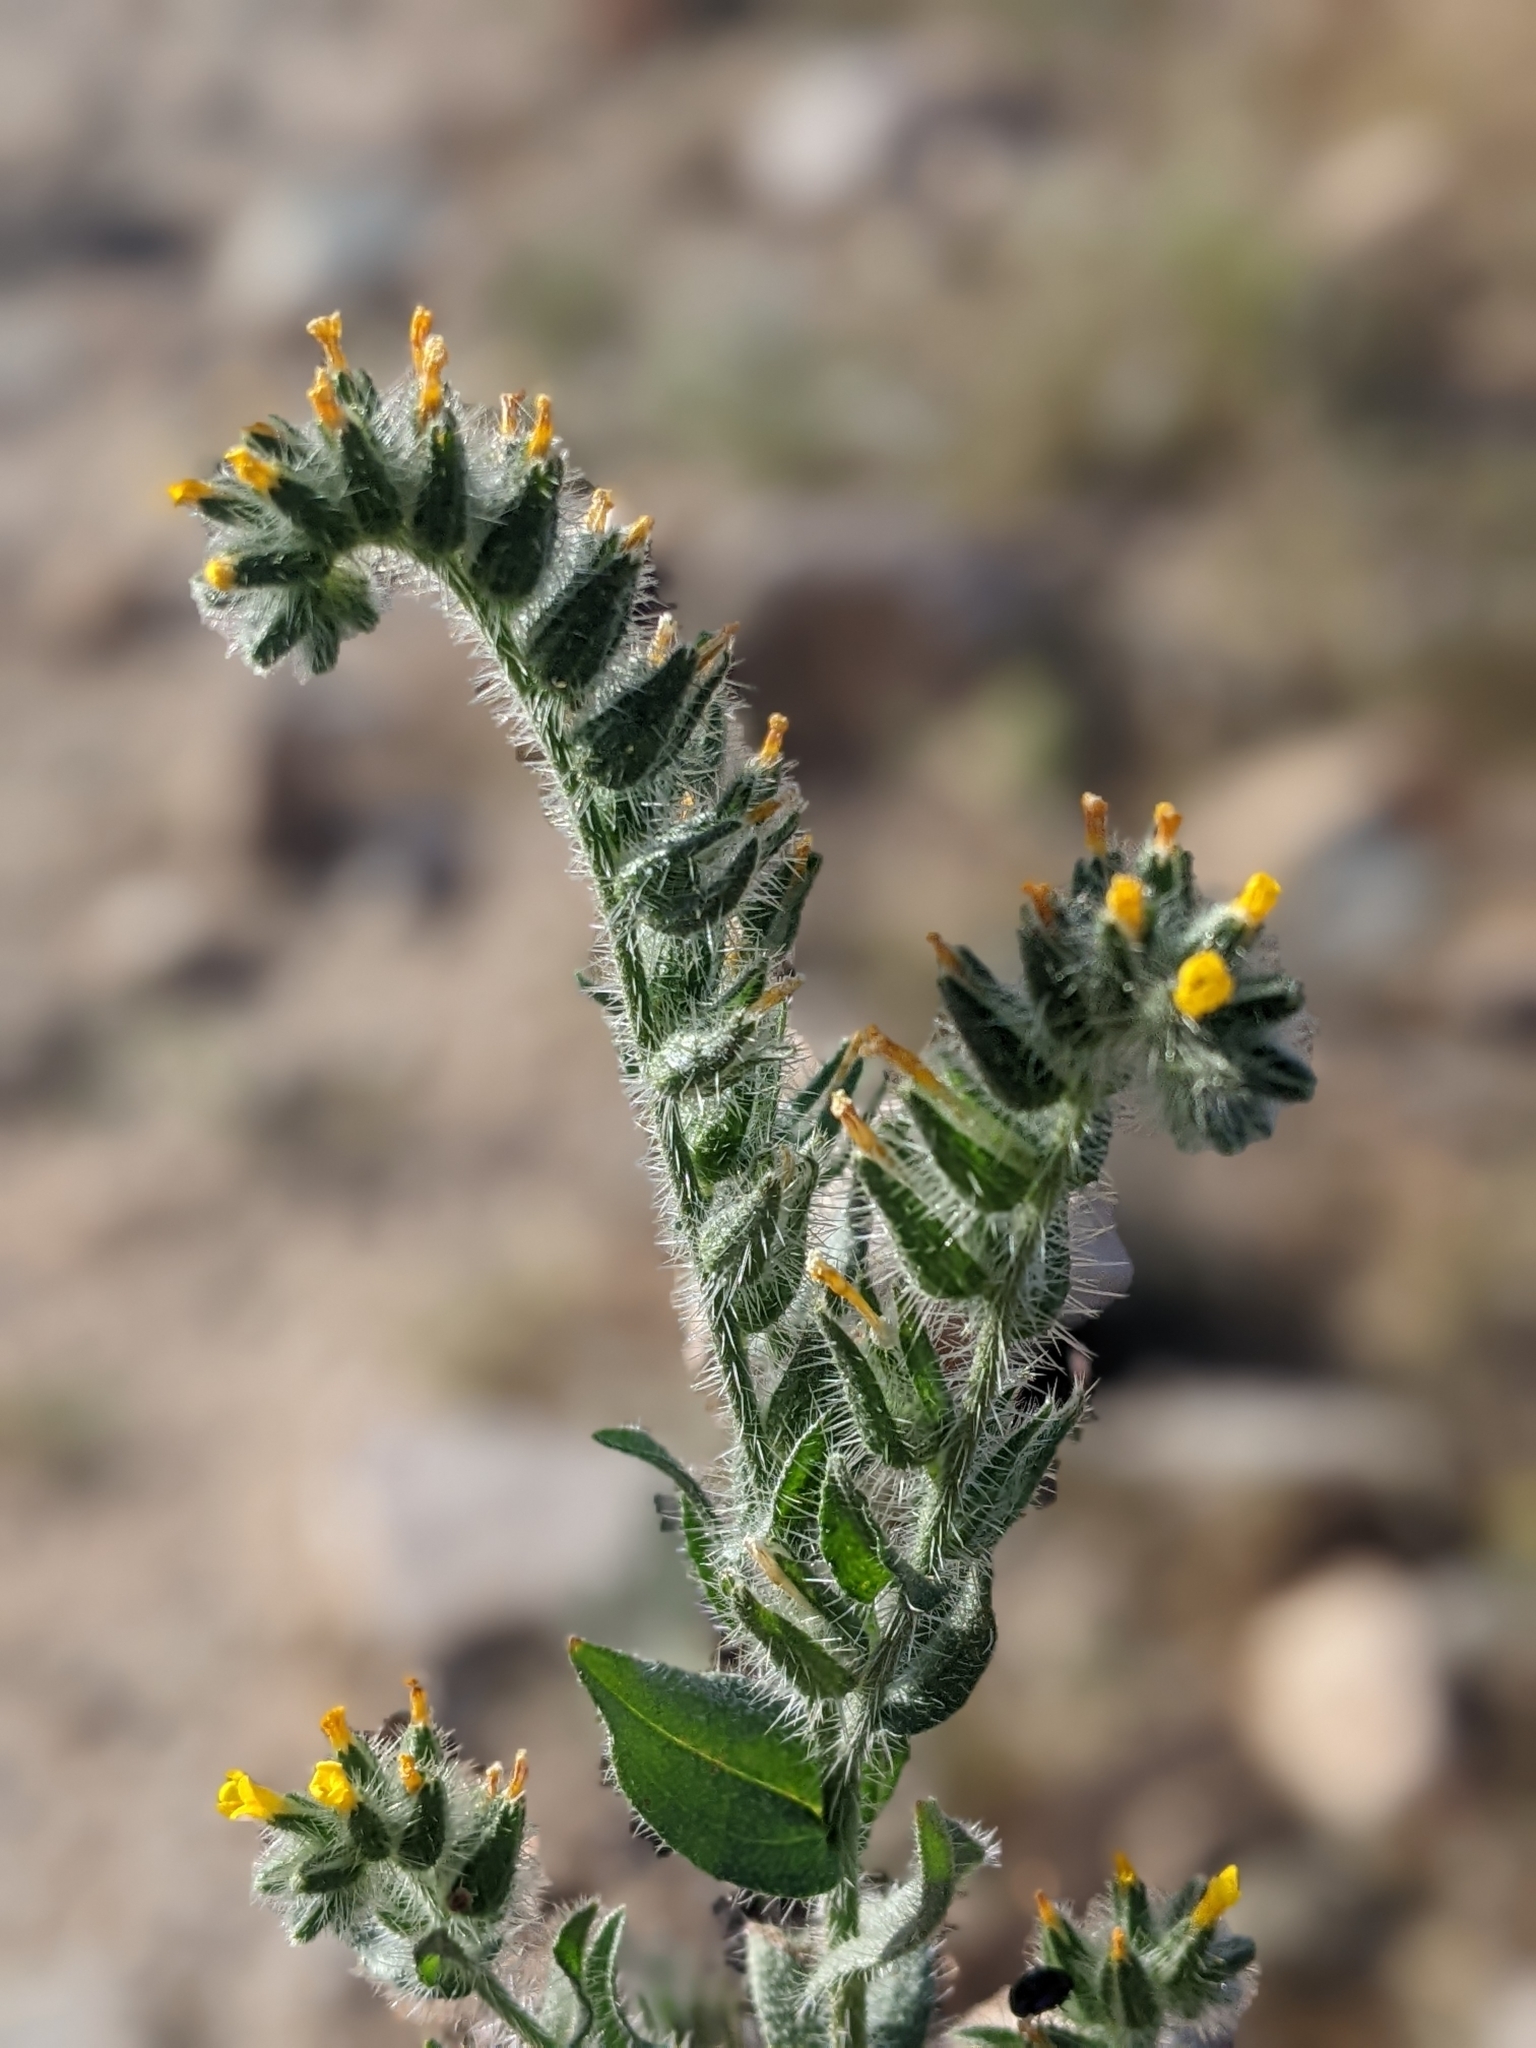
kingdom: Plantae
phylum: Tracheophyta
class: Magnoliopsida
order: Boraginales
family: Boraginaceae
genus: Amsinckia
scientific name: Amsinckia tessellata
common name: Tessellate fiddleneck
